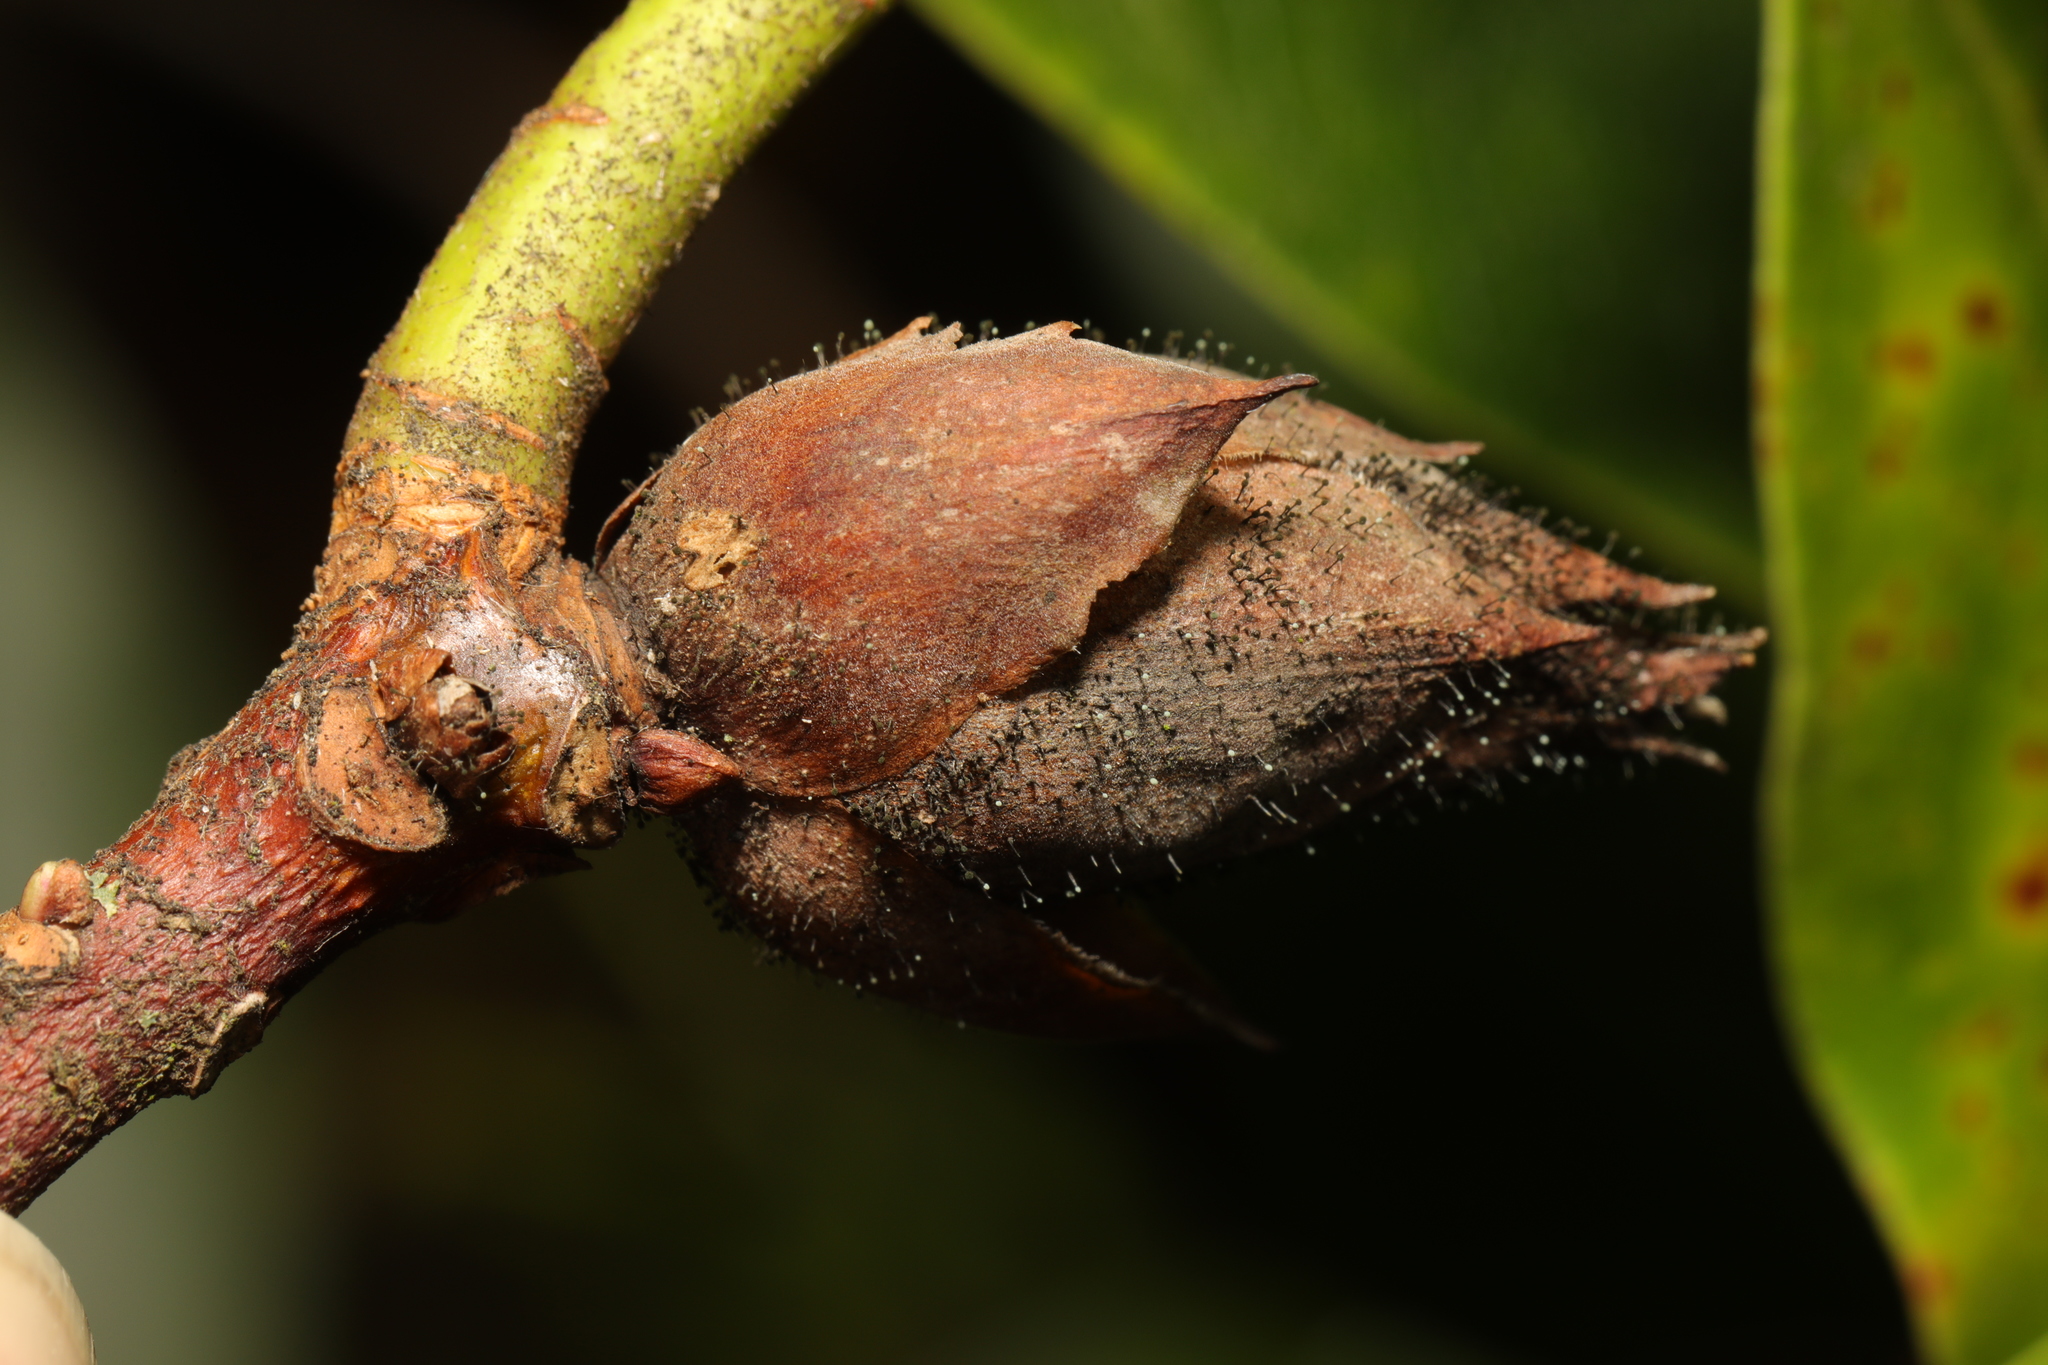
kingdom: Fungi
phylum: Ascomycota
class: Dothideomycetes
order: Pleosporales
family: Melanommataceae
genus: Seifertia
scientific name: Seifertia azaleae
